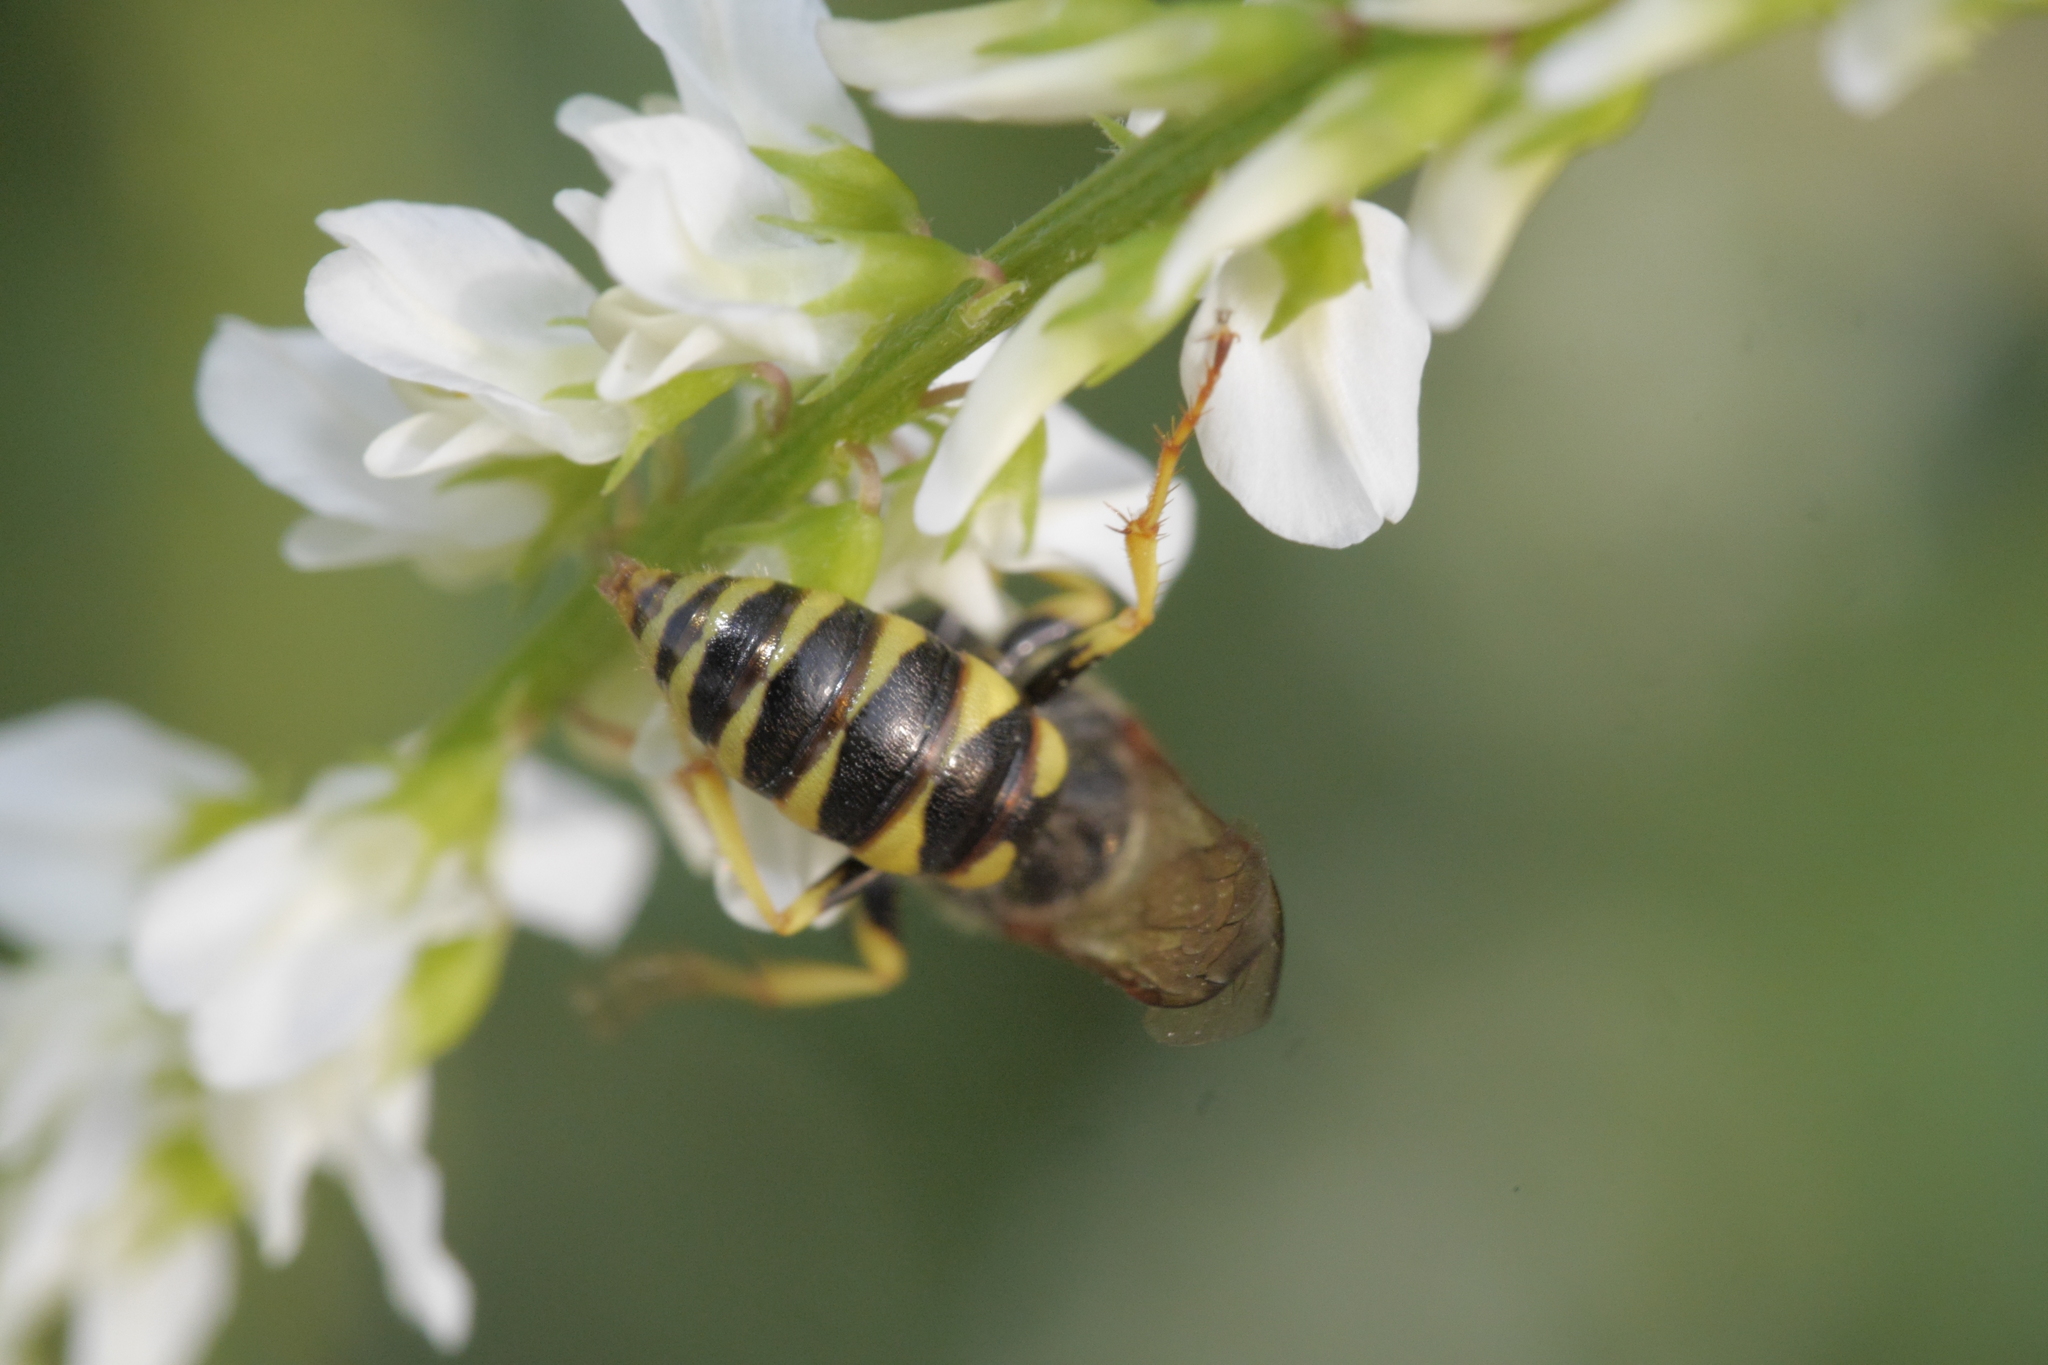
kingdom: Animalia
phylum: Arthropoda
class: Insecta
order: Hymenoptera
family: Crabronidae
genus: Philanthus
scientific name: Philanthus triangulum
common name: Bee wolf
